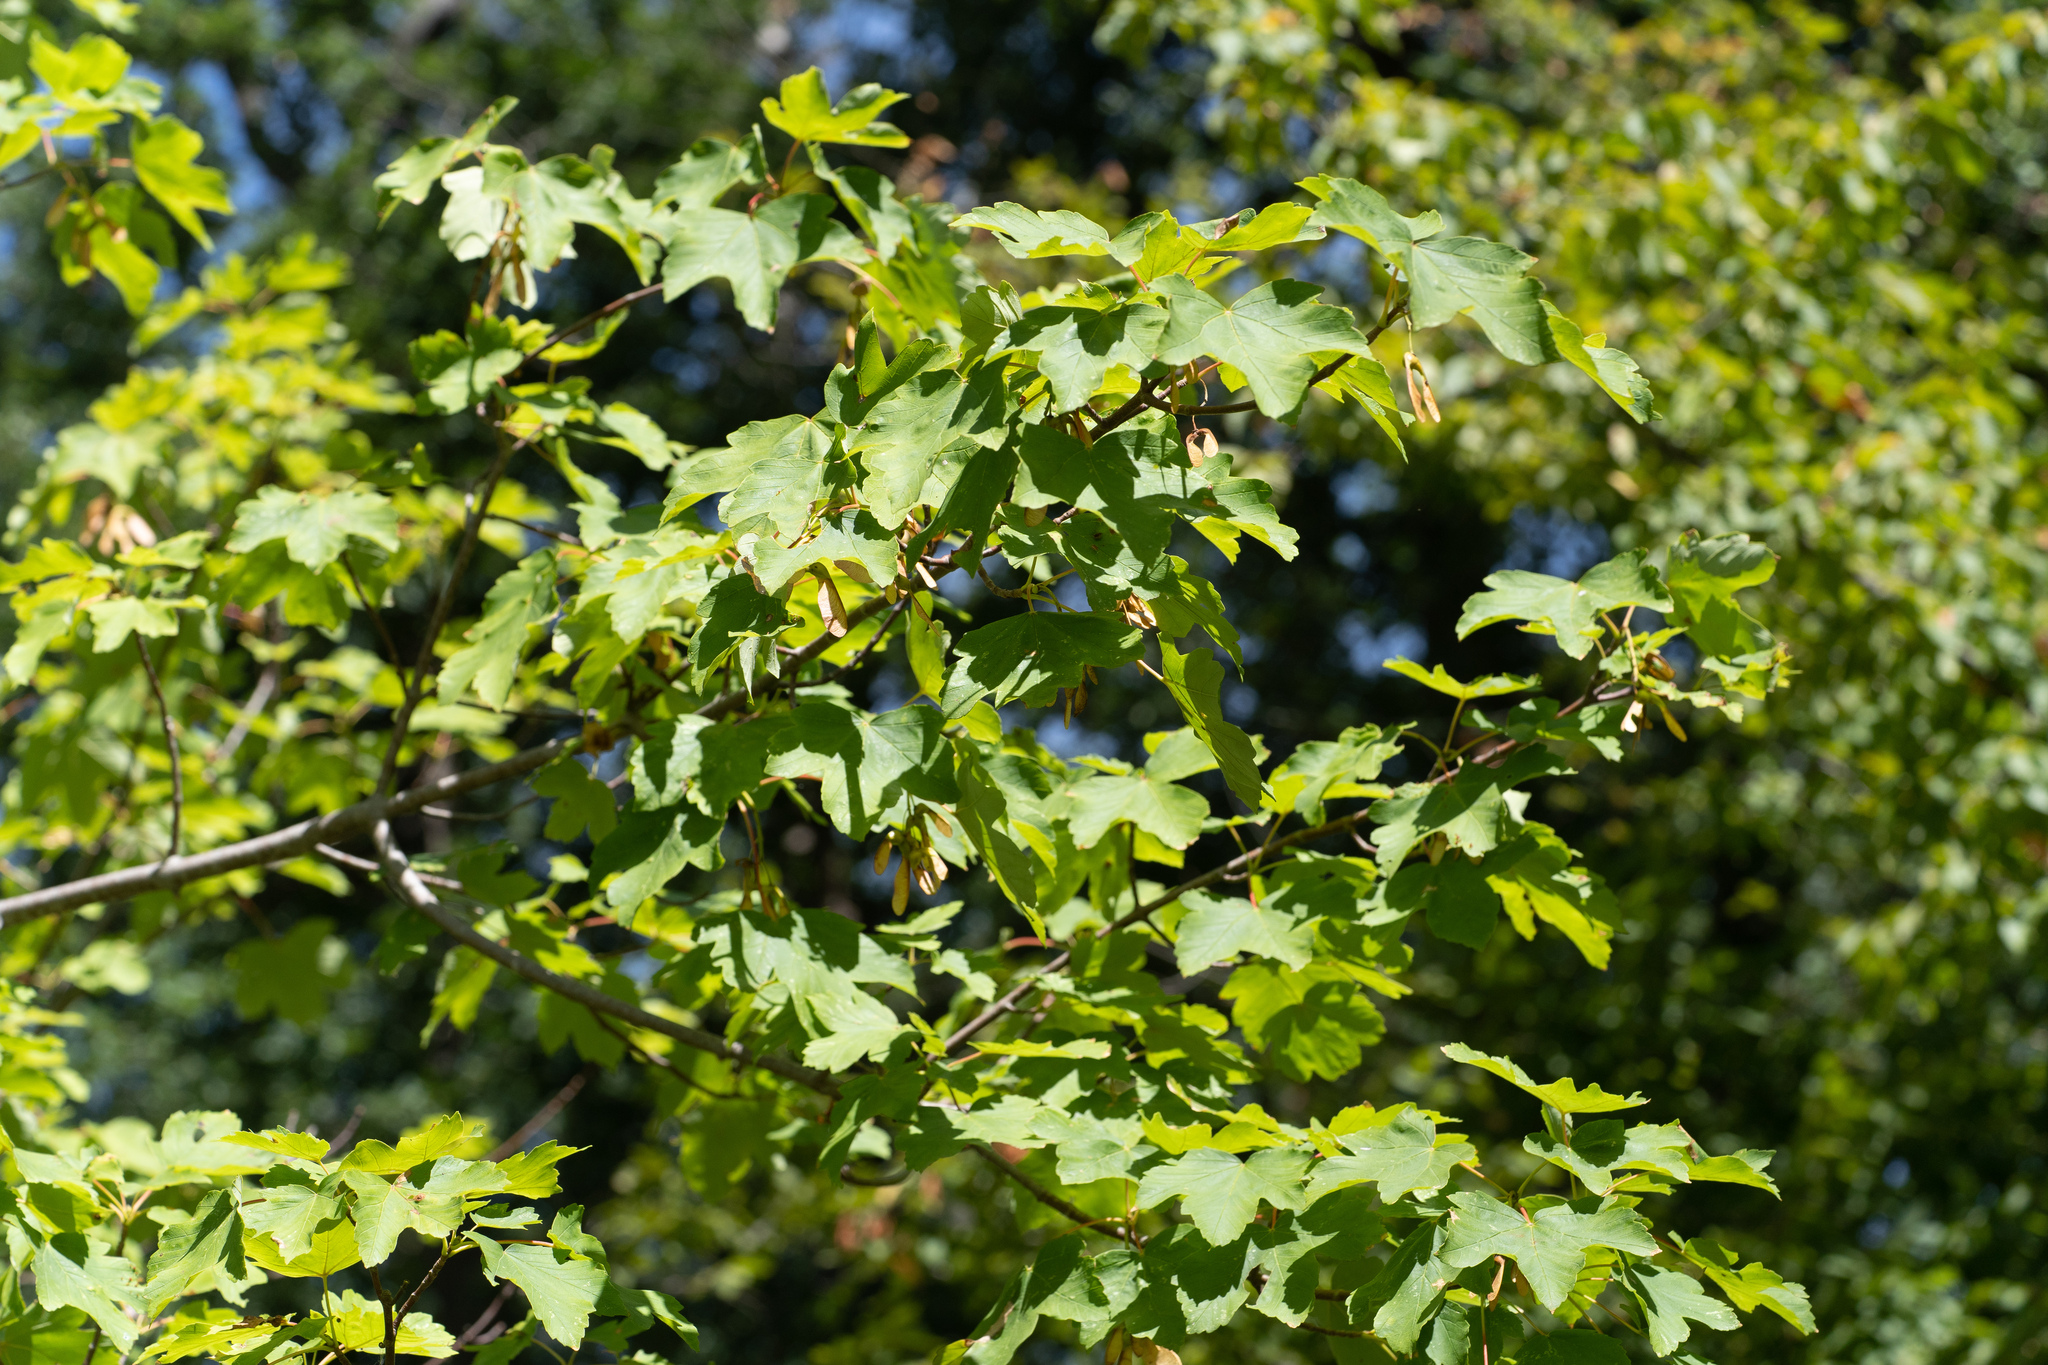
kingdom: Plantae
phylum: Tracheophyta
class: Magnoliopsida
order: Sapindales
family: Sapindaceae
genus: Acer
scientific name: Acer pseudoplatanus
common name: Sycamore
